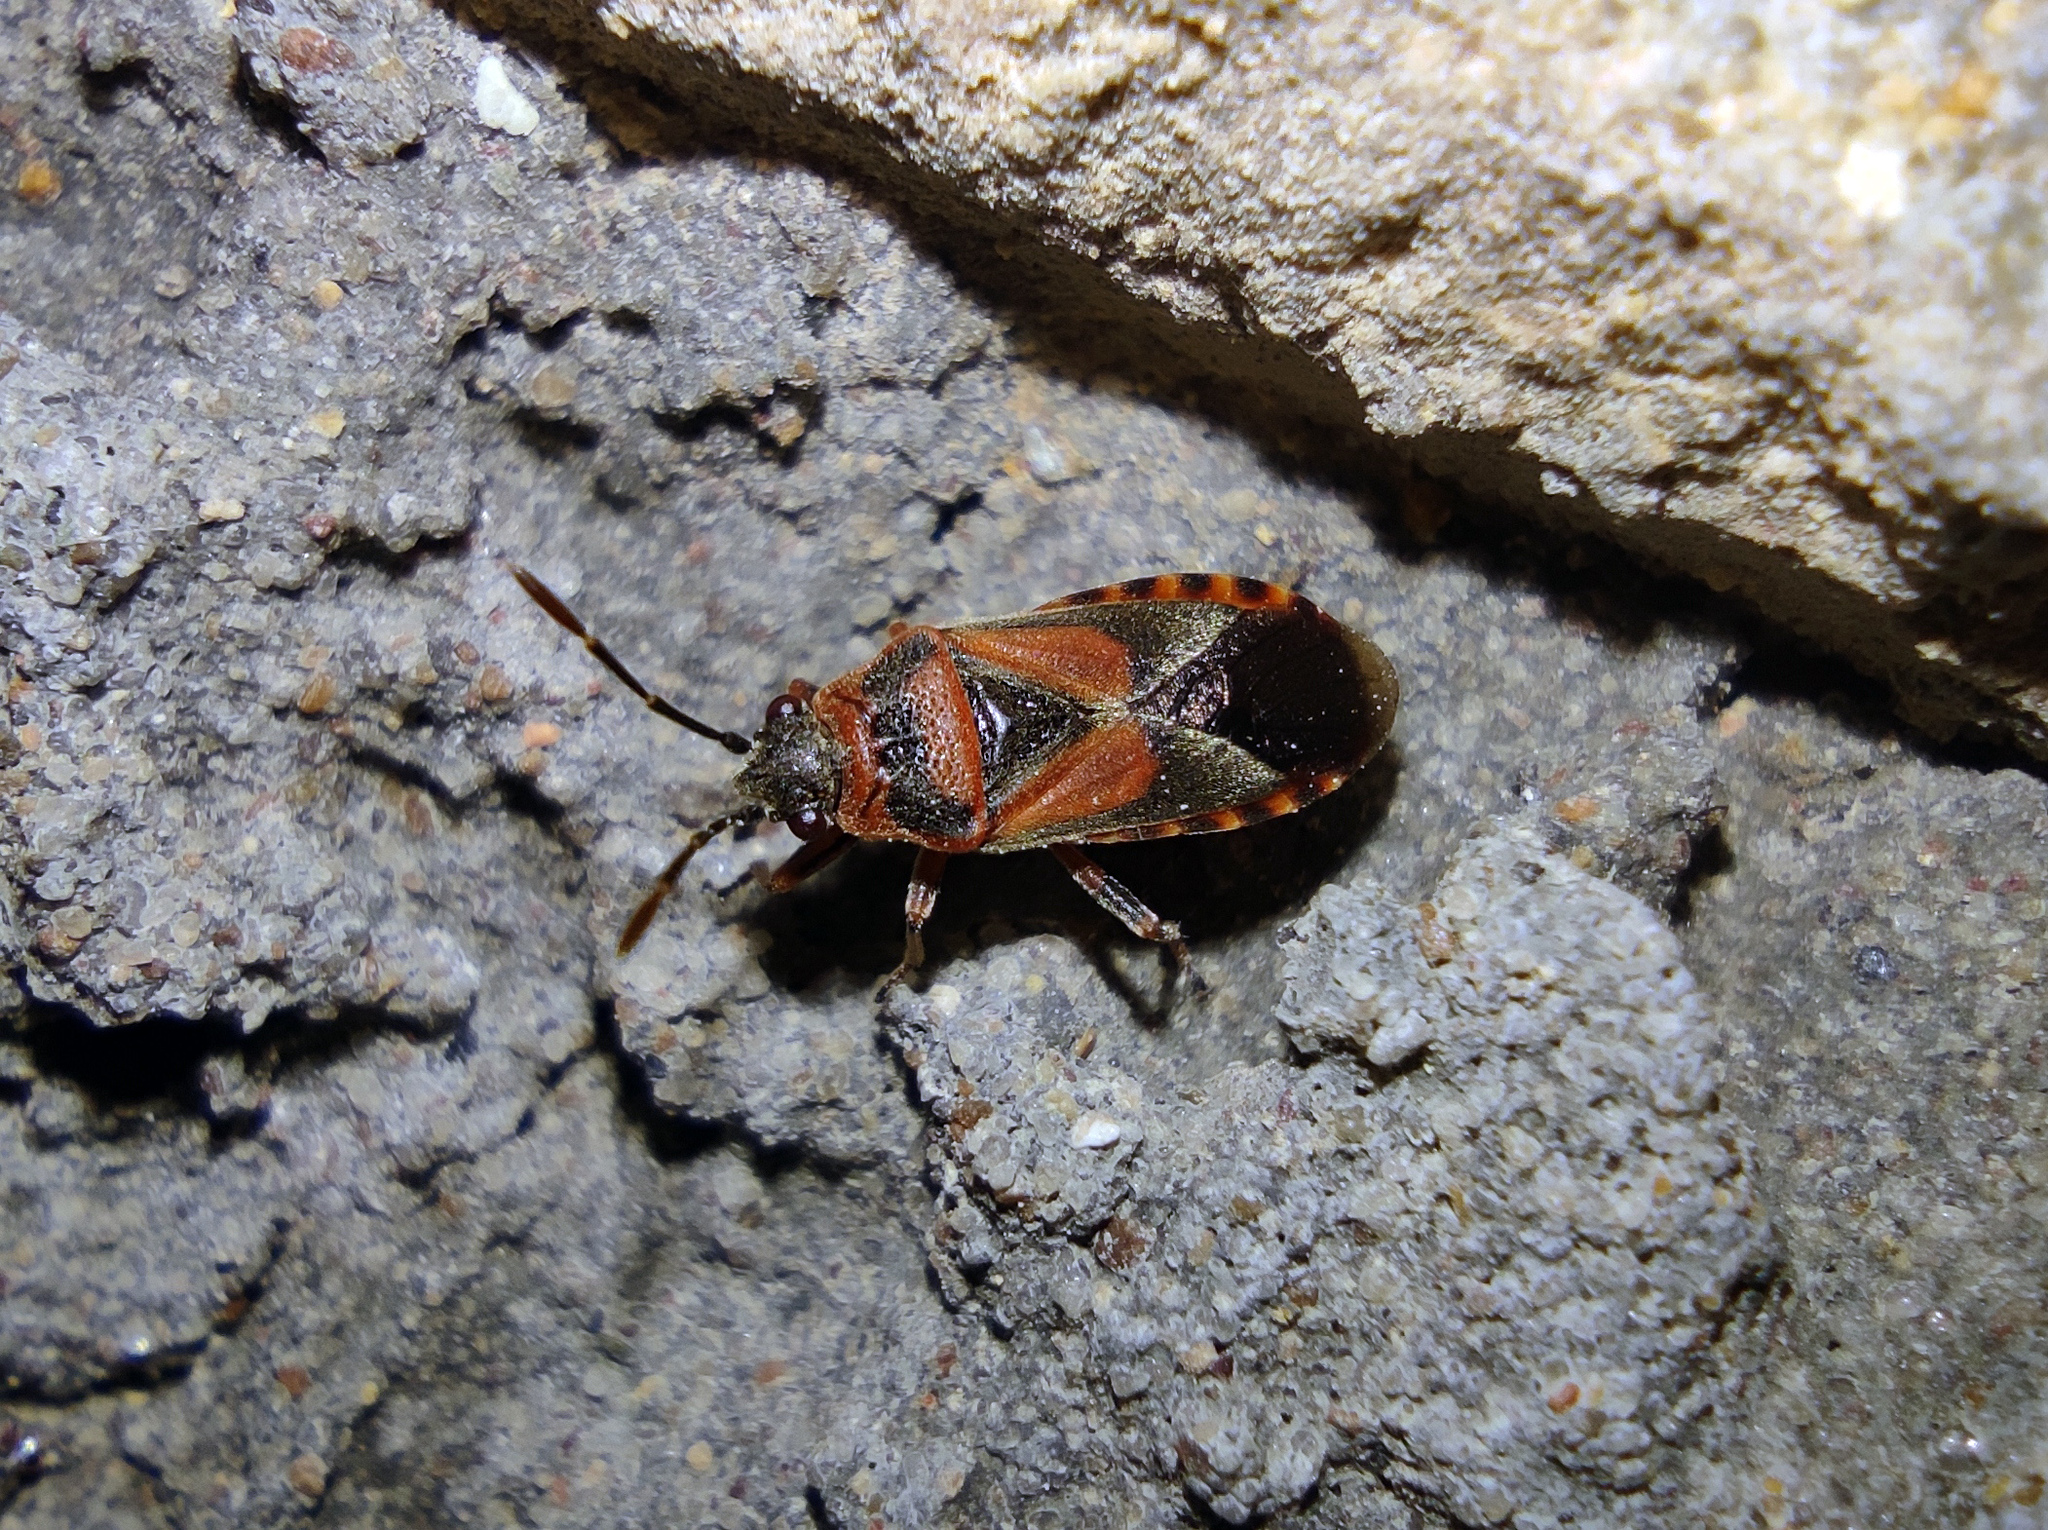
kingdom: Animalia
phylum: Arthropoda
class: Insecta
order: Hemiptera
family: Lygaeidae
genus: Arocatus
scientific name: Arocatus melanocephalus
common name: Lygaeid bug
